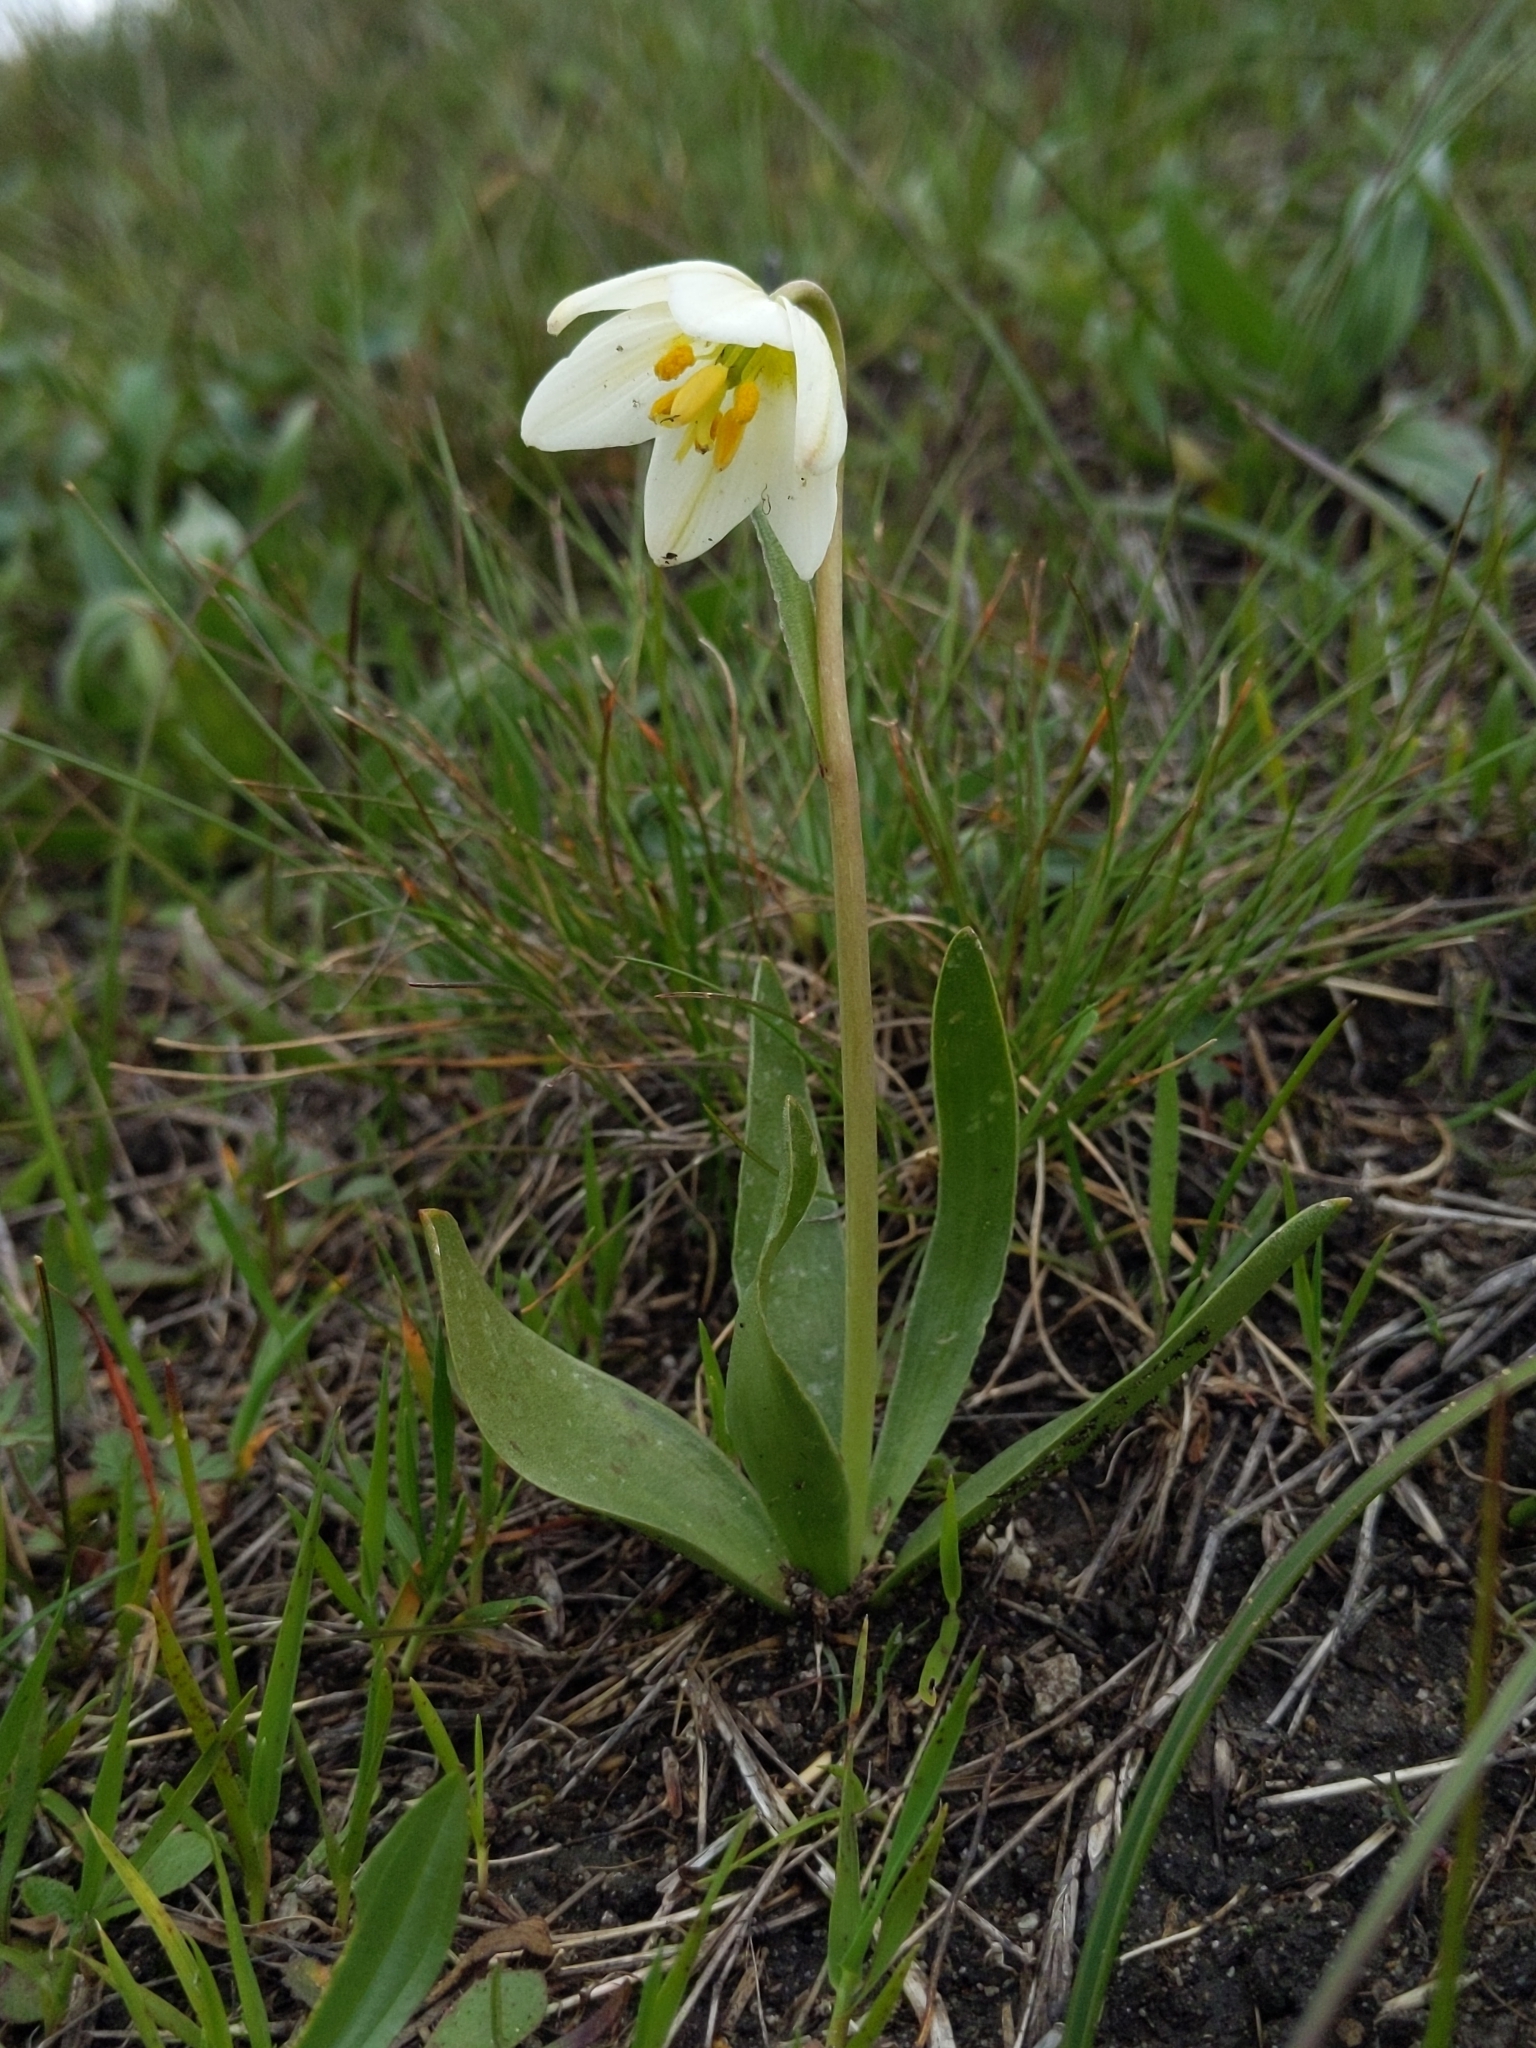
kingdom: Plantae
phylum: Tracheophyta
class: Liliopsida
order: Liliales
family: Liliaceae
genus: Fritillaria
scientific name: Fritillaria liliacea
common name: Fragrant fritillary
